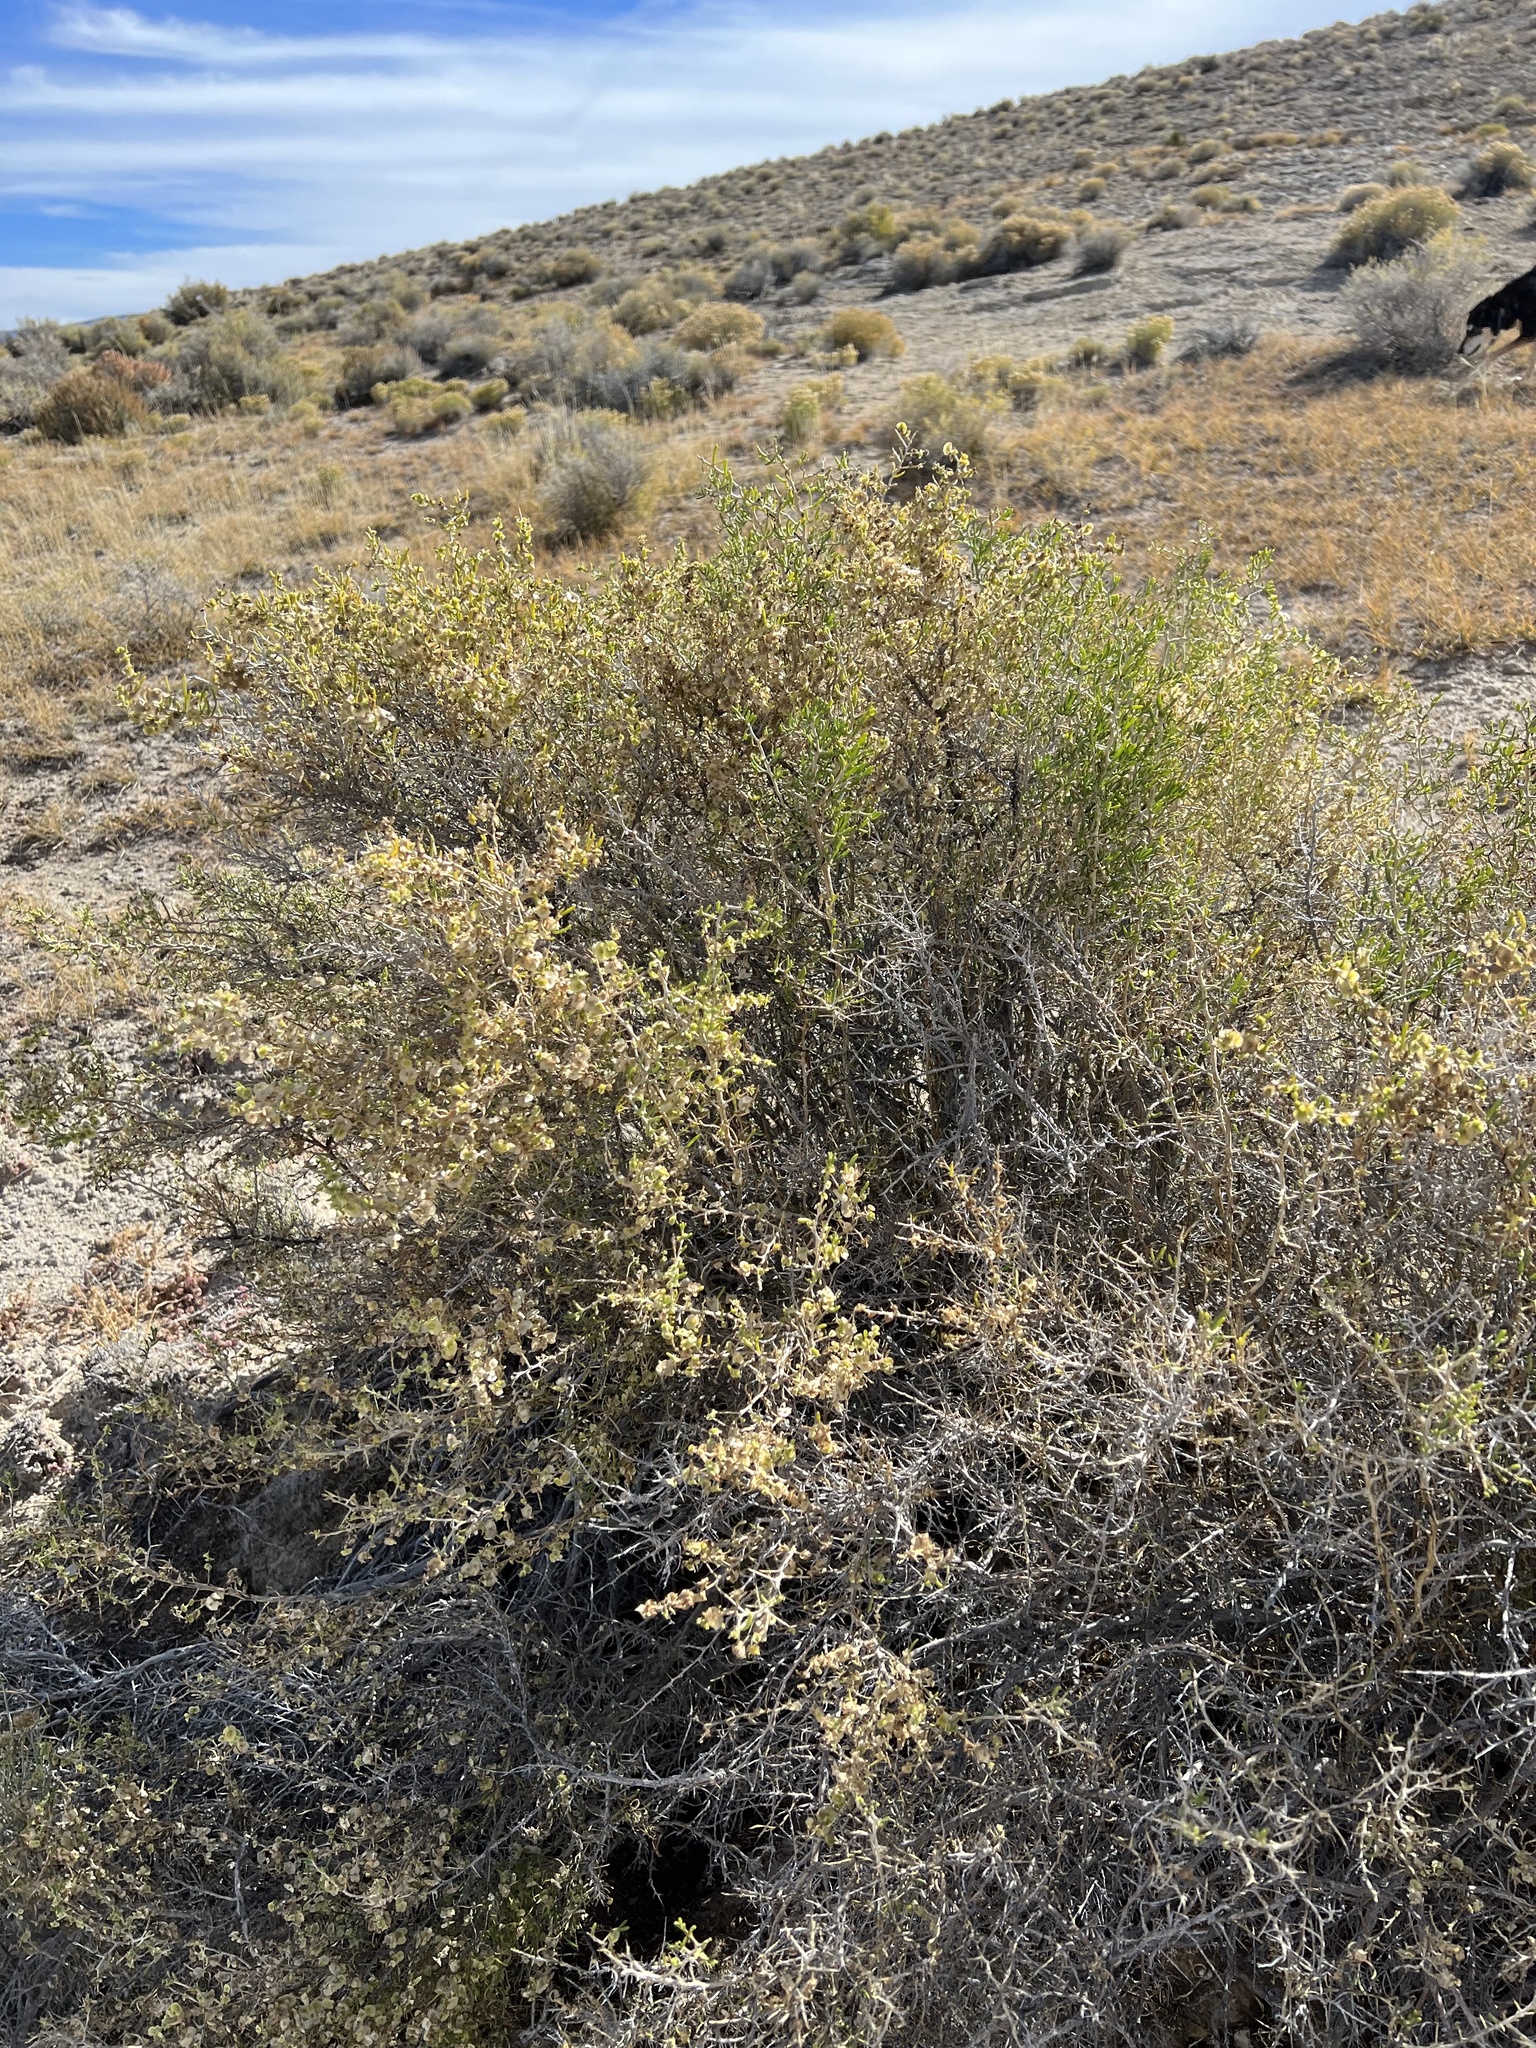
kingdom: Plantae
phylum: Tracheophyta
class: Magnoliopsida
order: Caryophyllales
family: Sarcobataceae
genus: Sarcobatus
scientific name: Sarcobatus vermiculatus
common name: Greasewood
